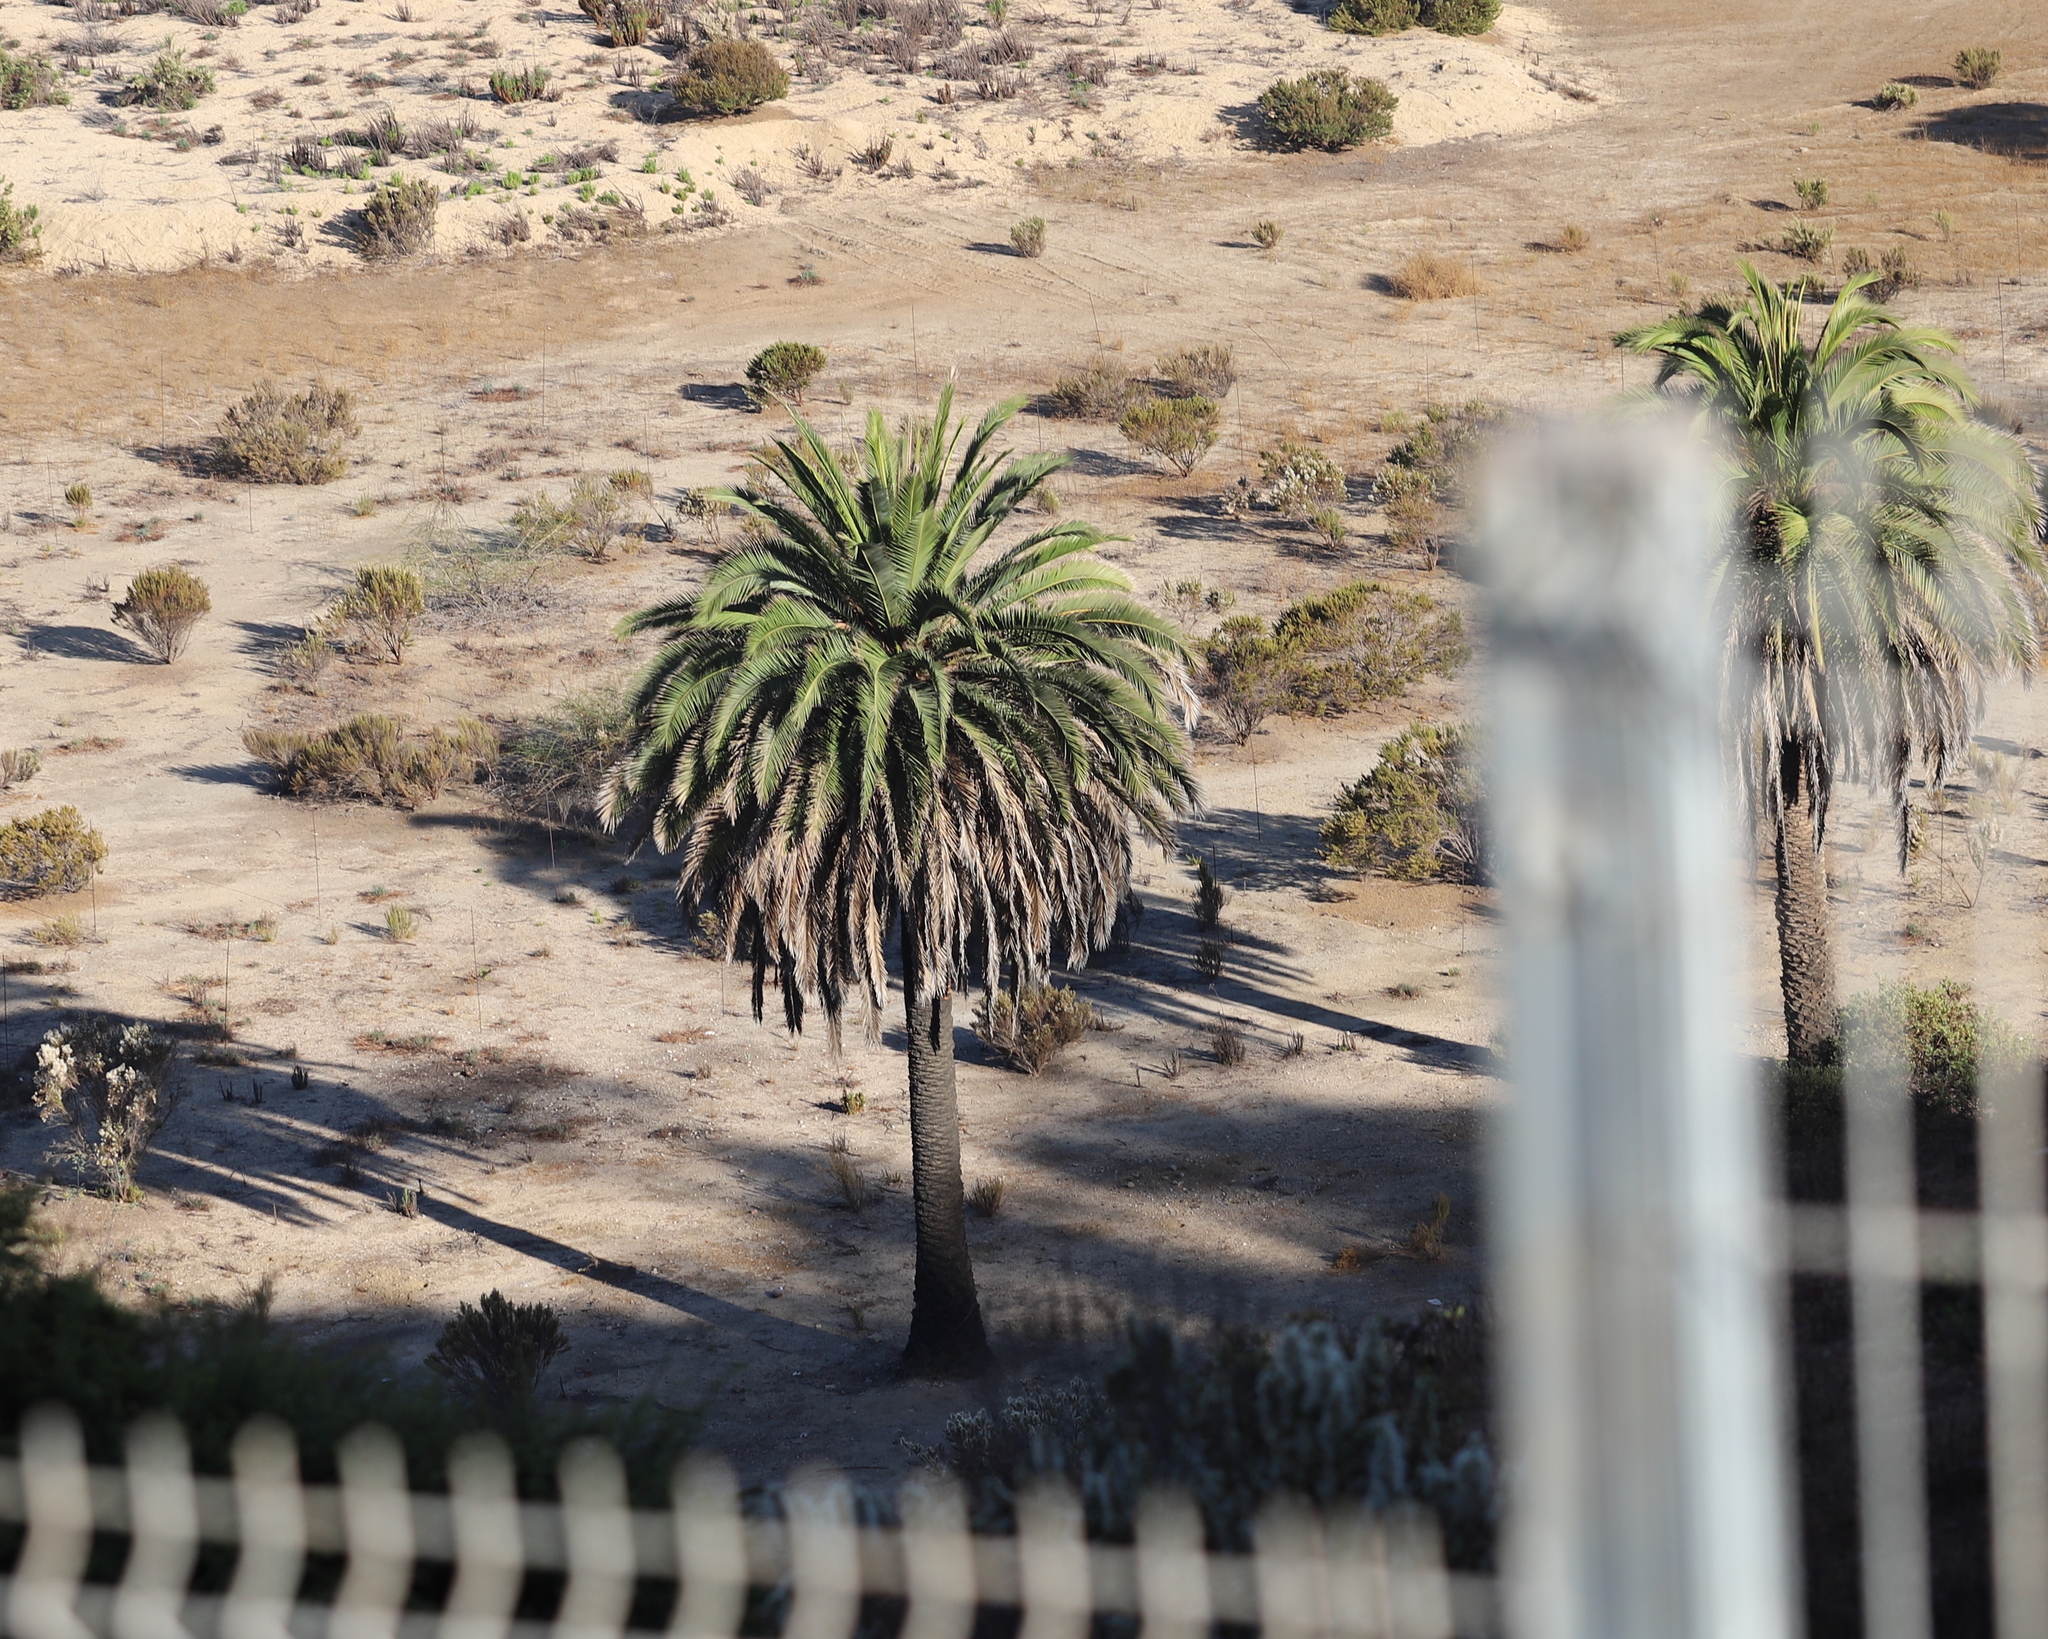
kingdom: Plantae
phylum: Tracheophyta
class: Liliopsida
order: Arecales
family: Arecaceae
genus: Phoenix
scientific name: Phoenix canariensis
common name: Canary island date palm
